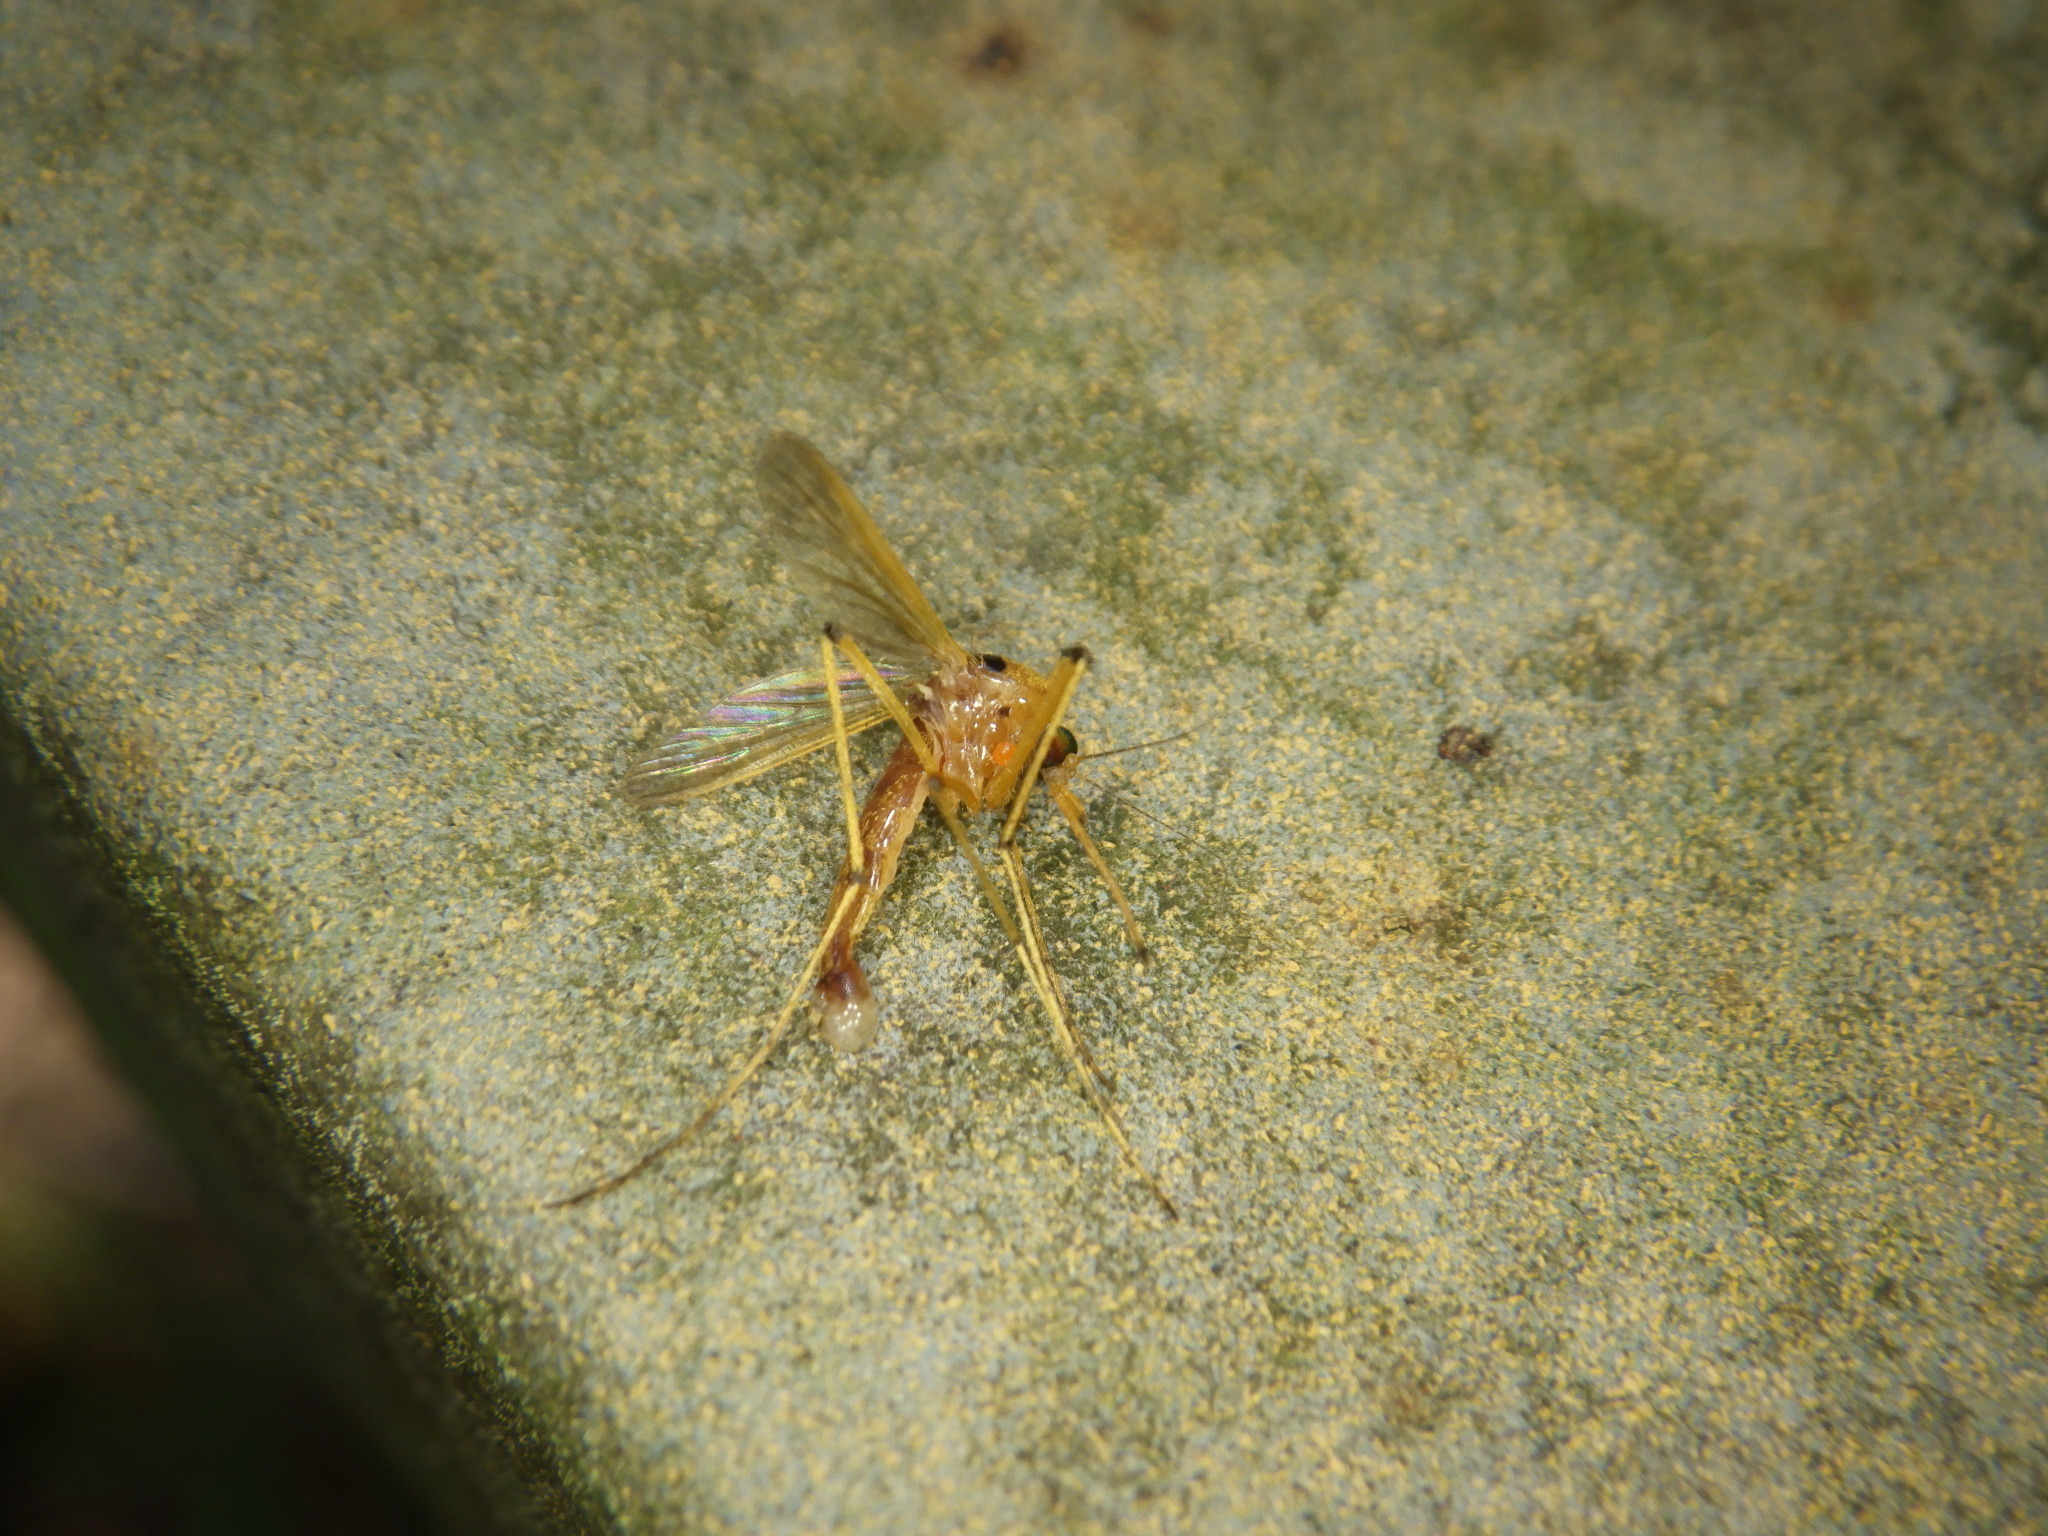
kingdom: Animalia
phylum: Arthropoda
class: Insecta
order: Diptera
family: Culicidae
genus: Aedes
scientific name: Aedes fulvus
